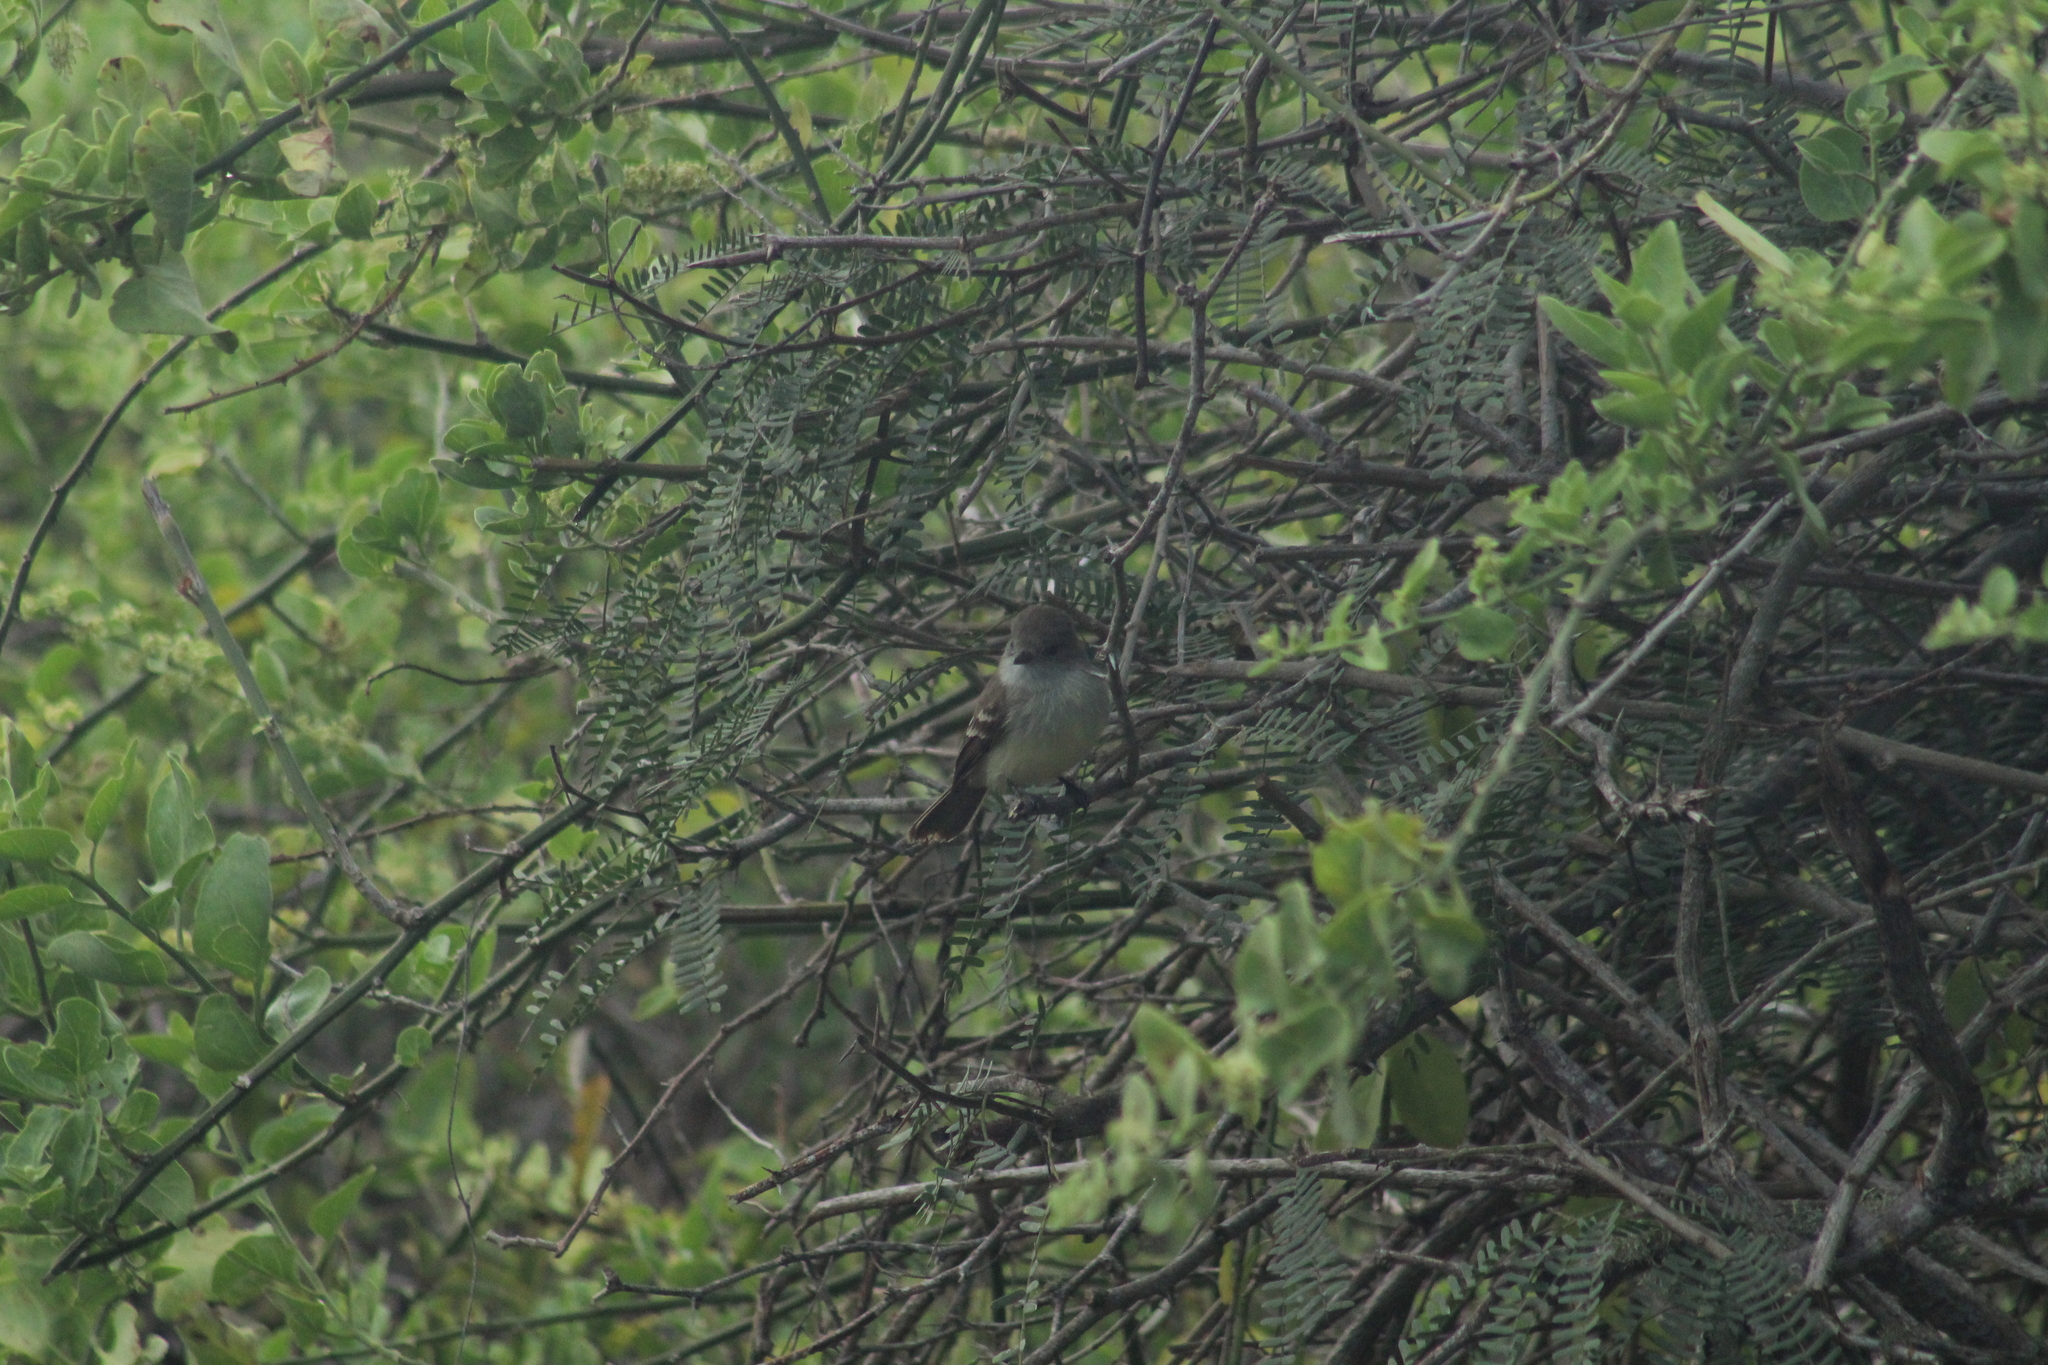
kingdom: Animalia
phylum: Chordata
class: Aves
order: Passeriformes
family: Tyrannidae
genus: Myiarchus
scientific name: Myiarchus magnirostris
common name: Galapagos flycatcher
